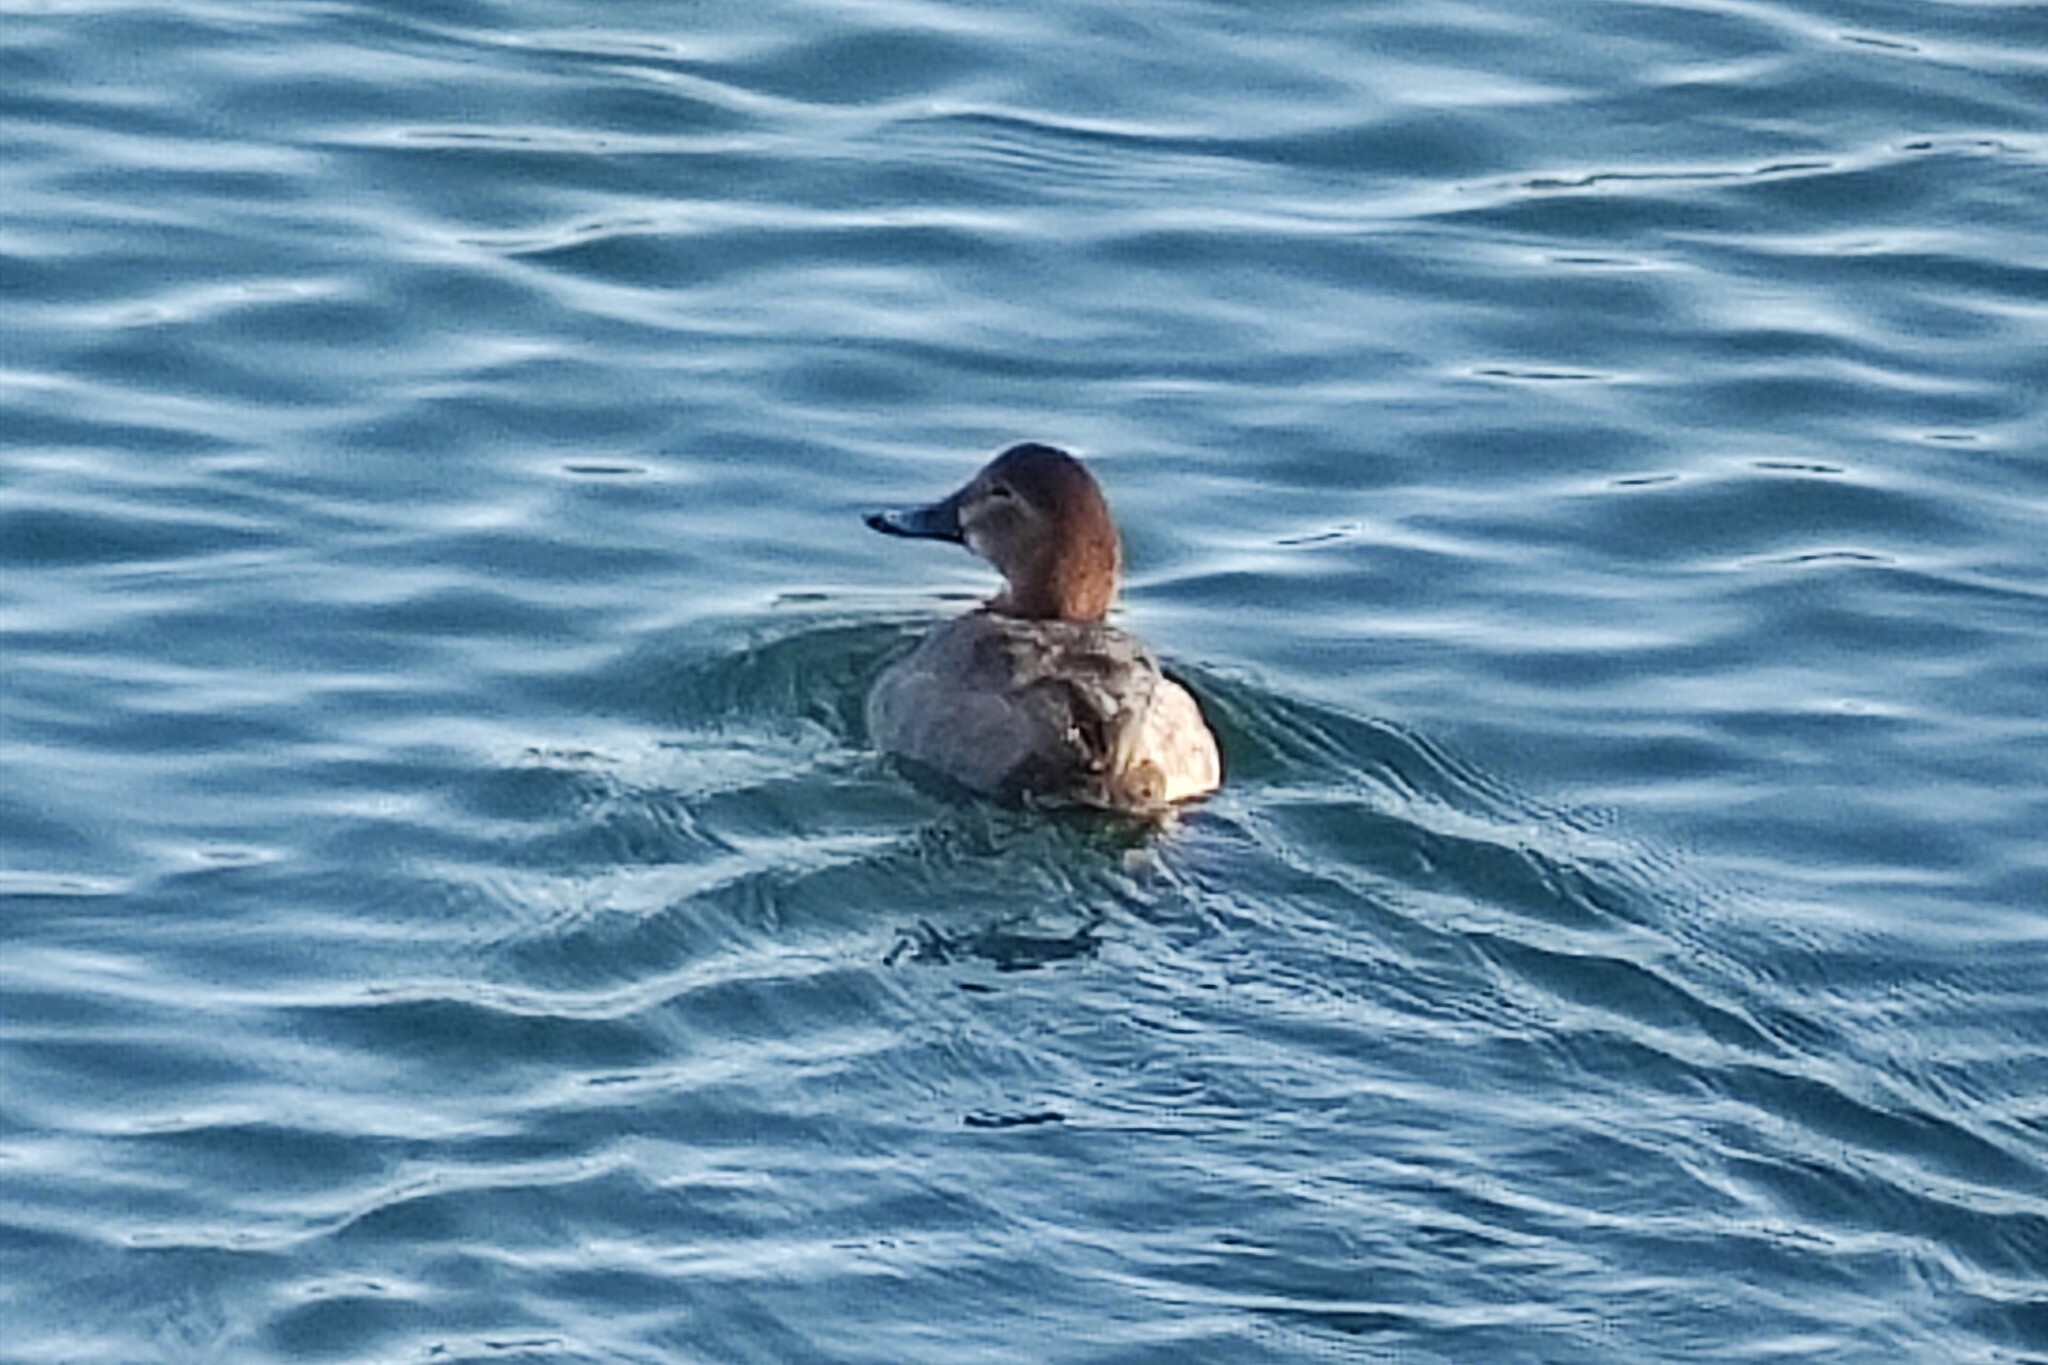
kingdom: Animalia
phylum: Chordata
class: Aves
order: Anseriformes
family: Anatidae
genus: Aythya
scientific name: Aythya ferina
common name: Common pochard
